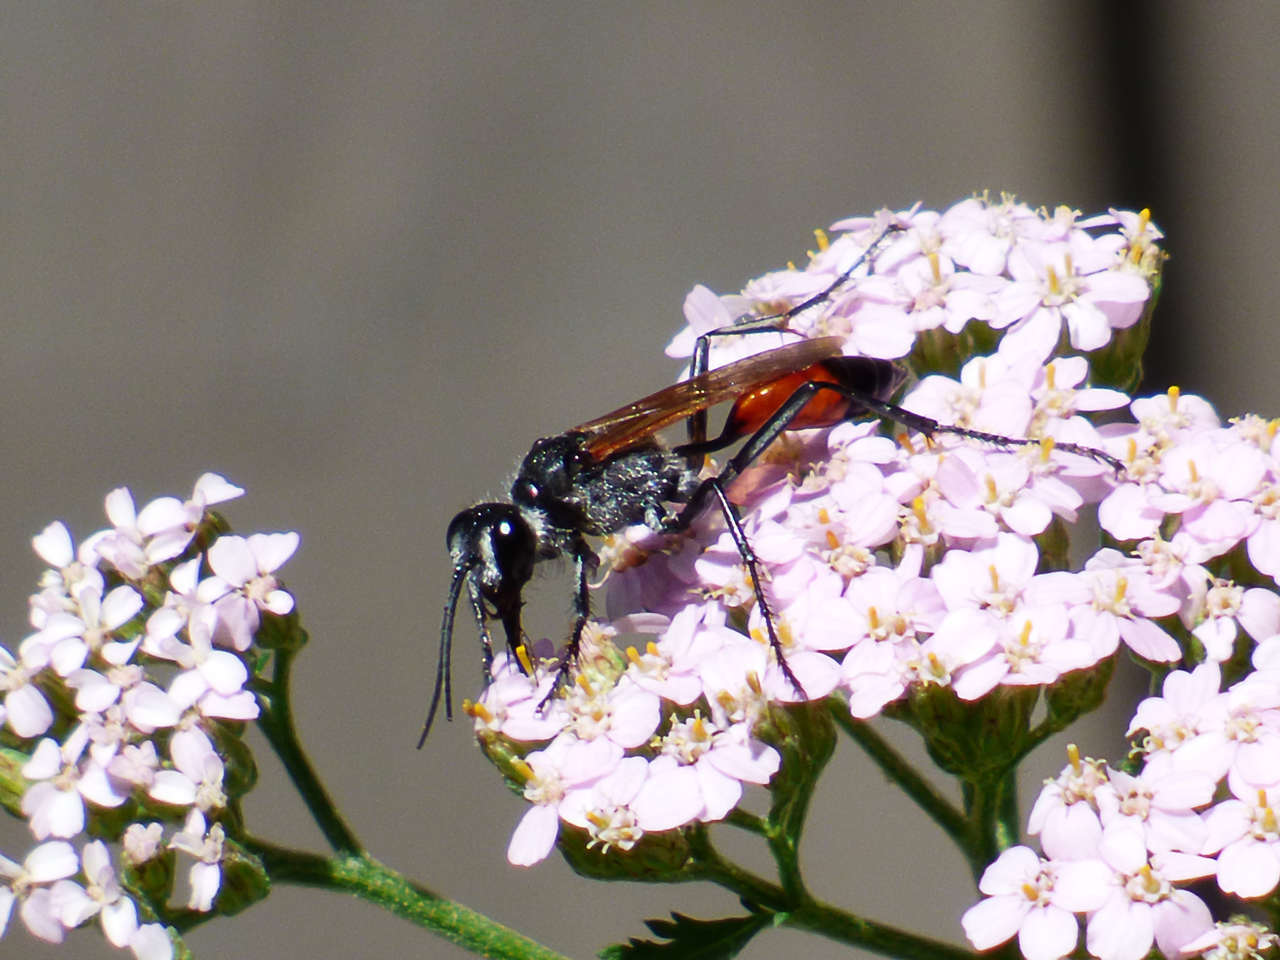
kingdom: Animalia
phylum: Arthropoda
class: Insecta
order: Hymenoptera
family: Sphecidae
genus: Podalonia
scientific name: Podalonia tydei
